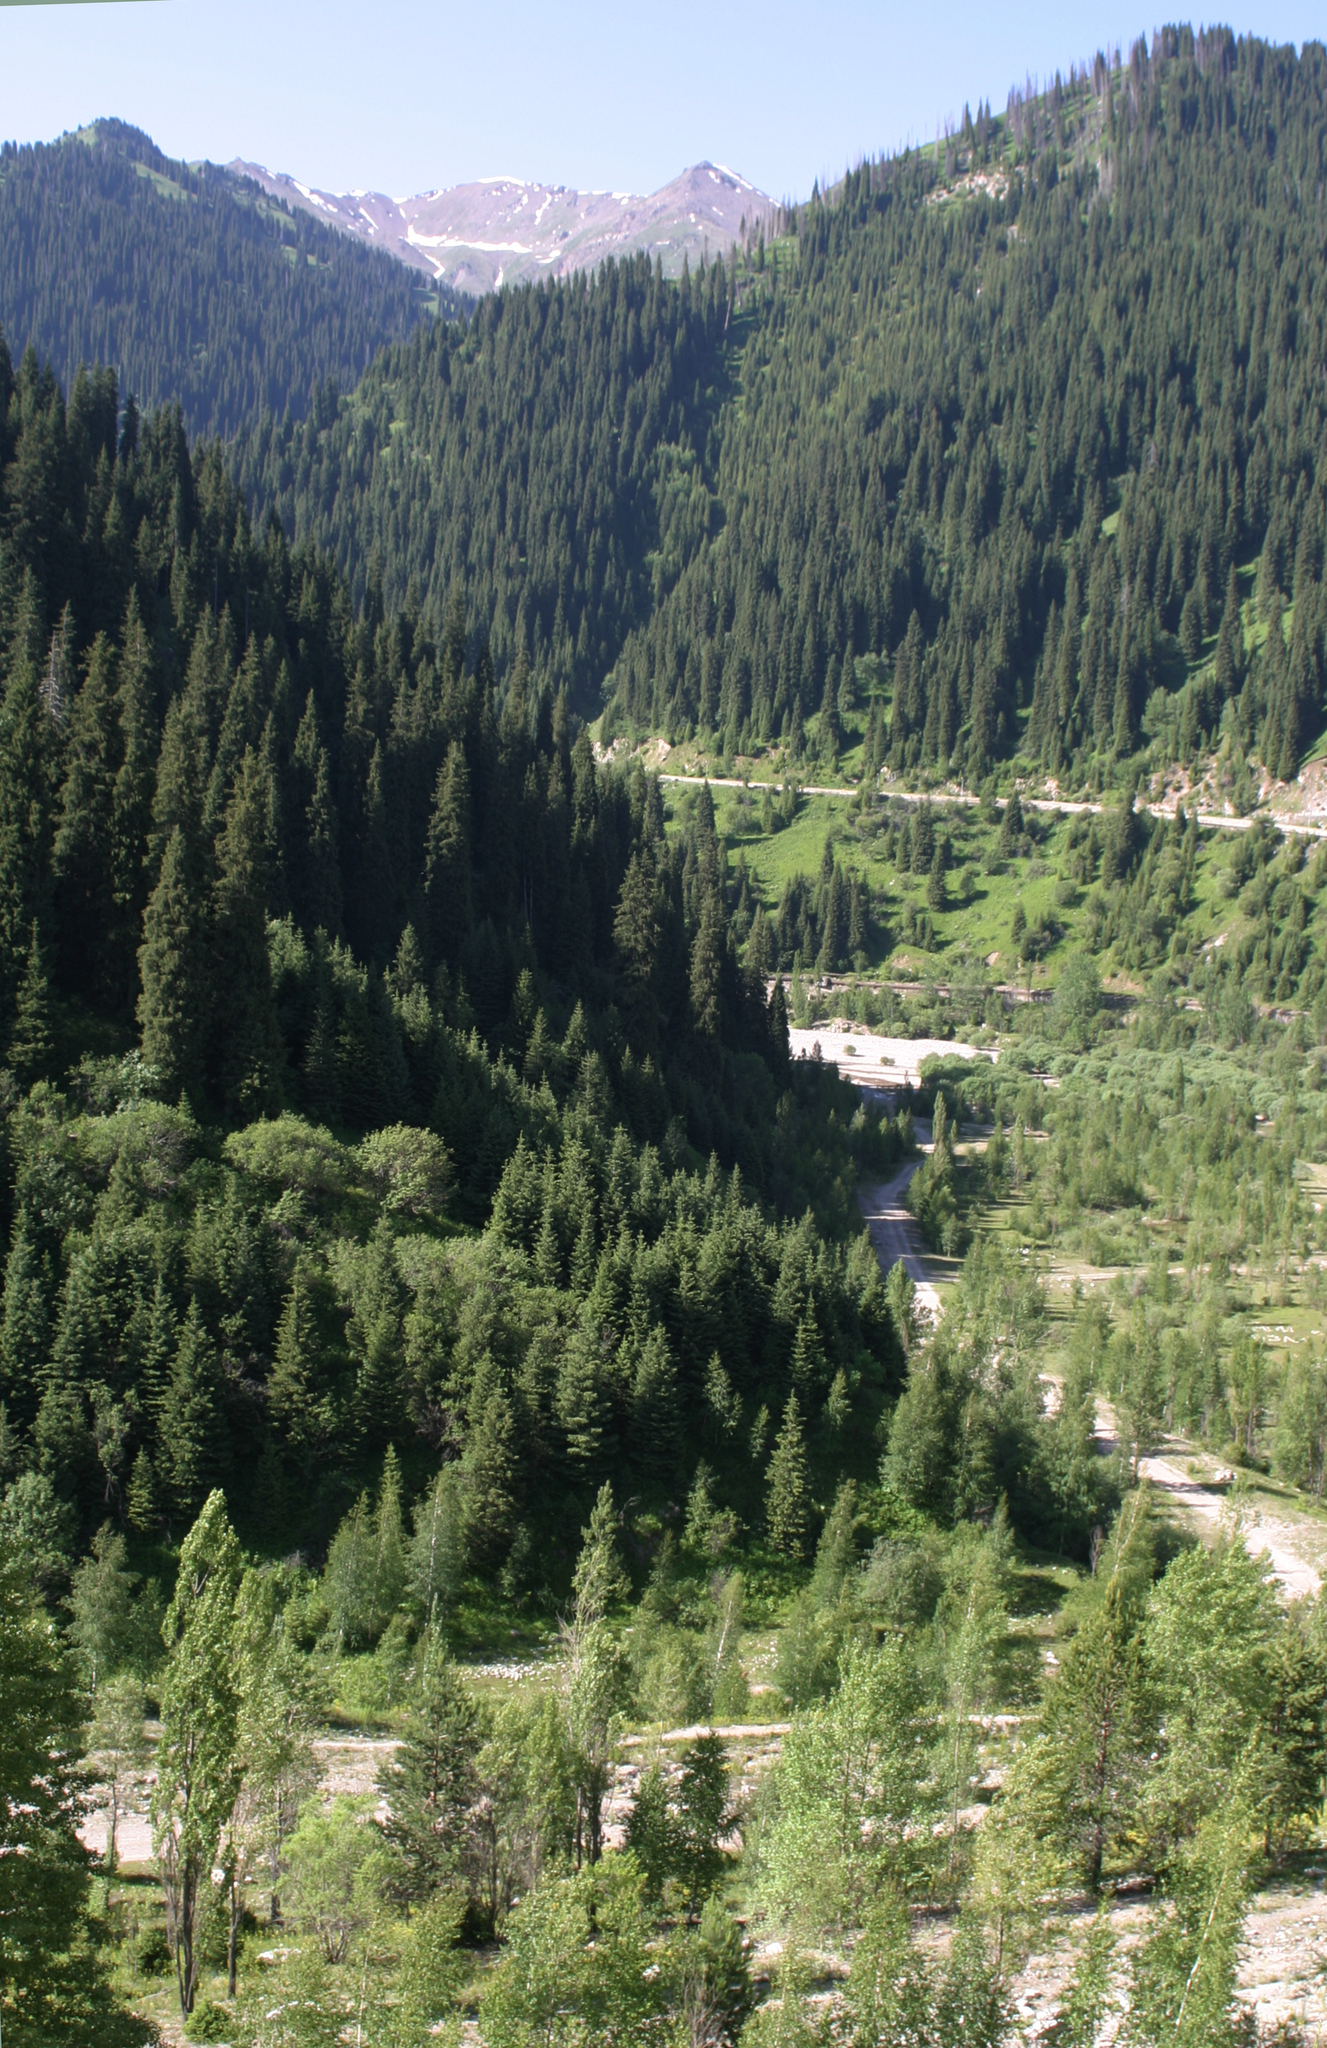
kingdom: Plantae
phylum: Tracheophyta
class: Pinopsida
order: Pinales
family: Pinaceae
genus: Picea
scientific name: Picea schrenkiana
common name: Asian spruce
